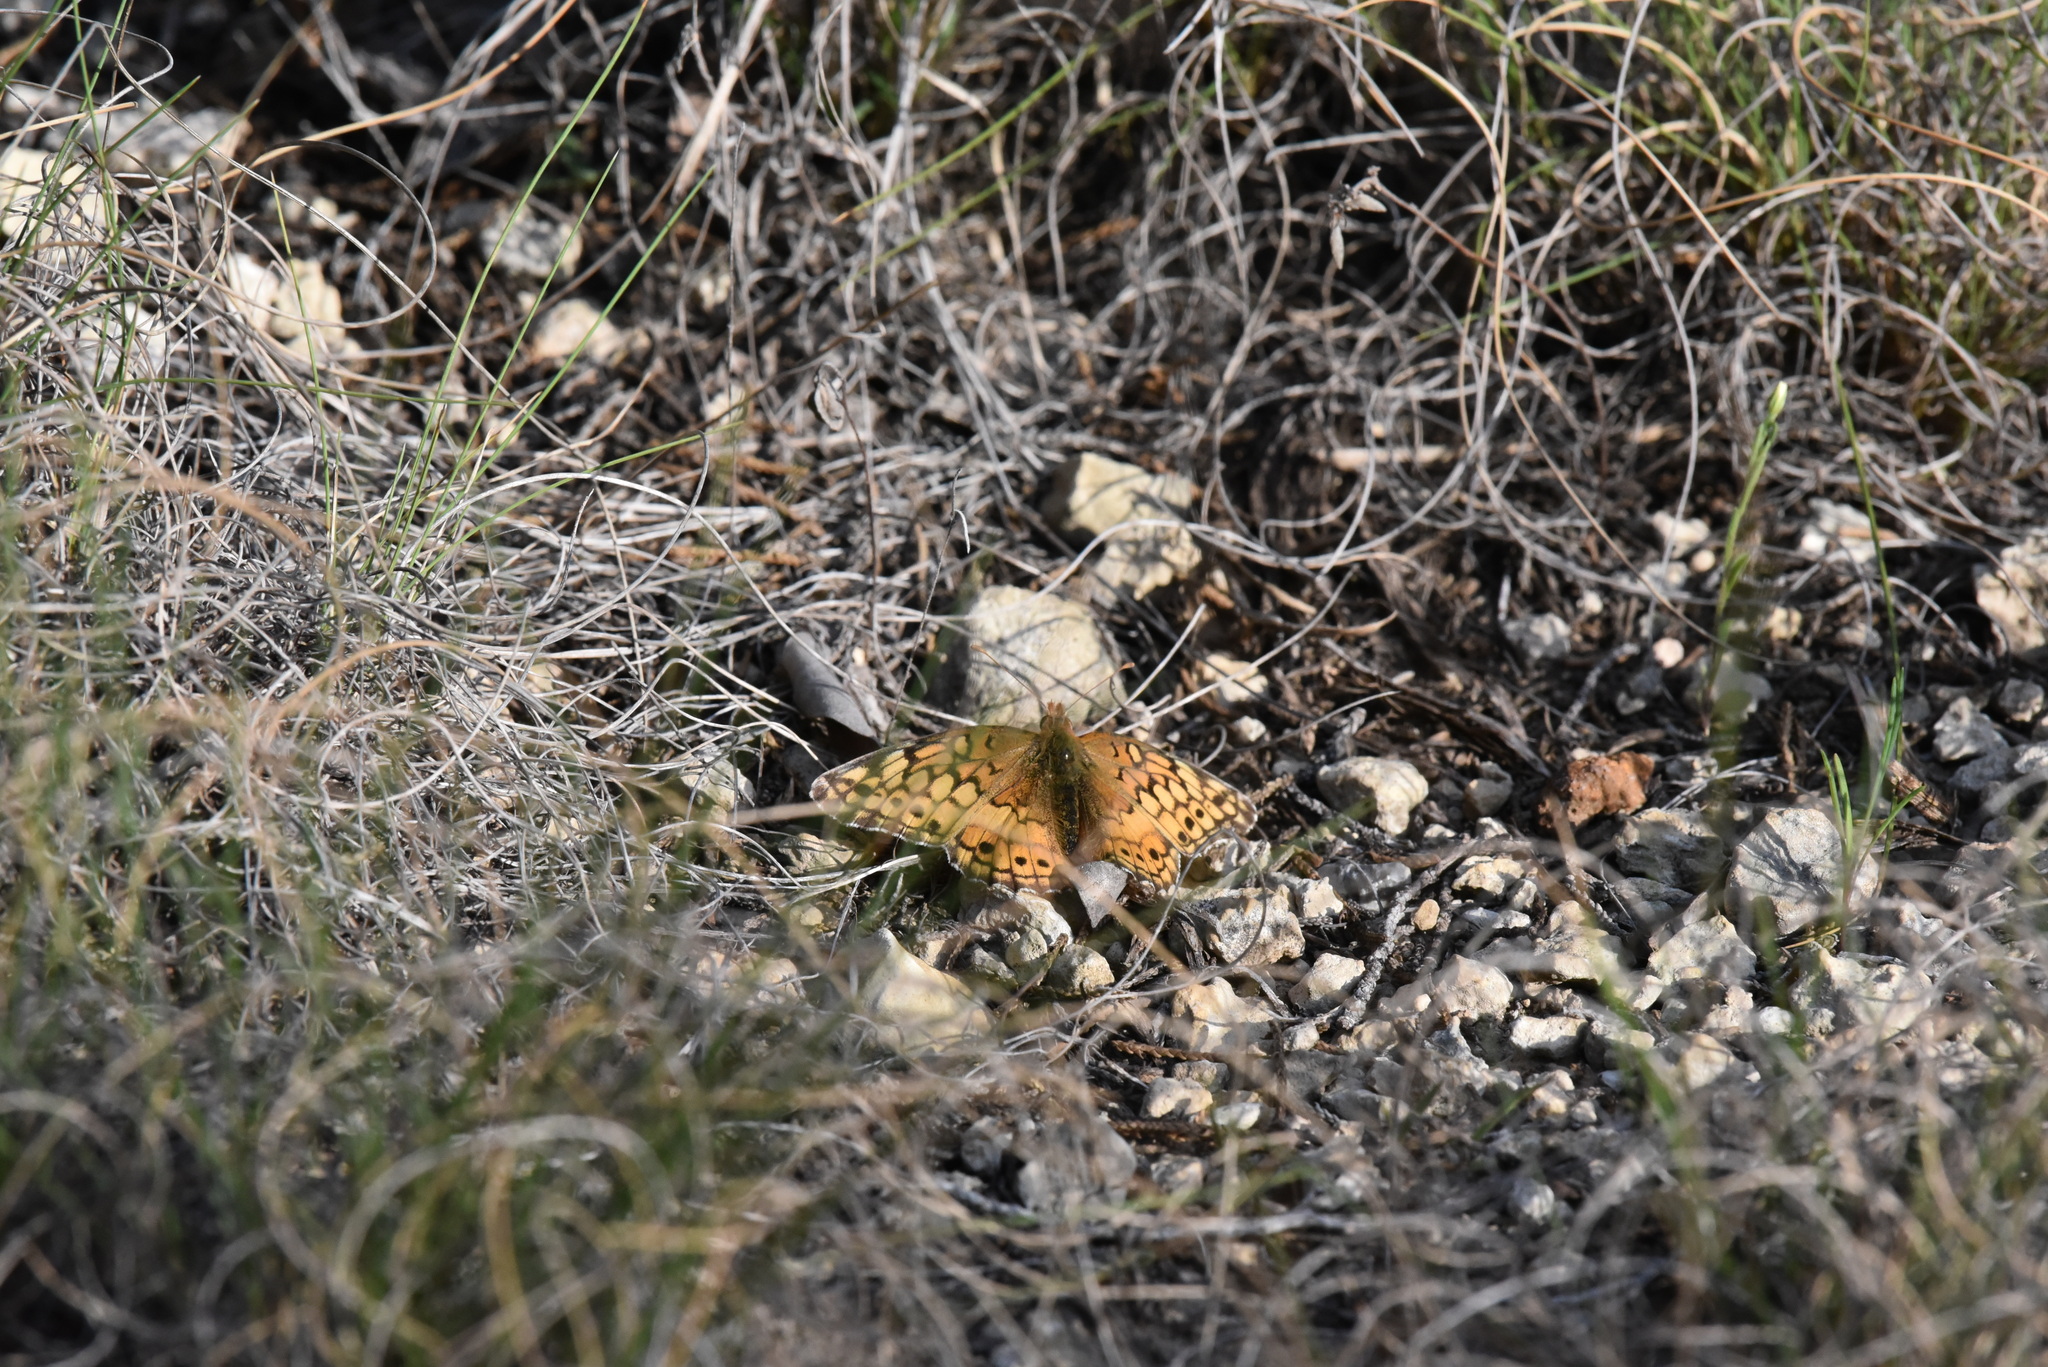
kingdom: Animalia
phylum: Arthropoda
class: Insecta
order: Lepidoptera
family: Nymphalidae
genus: Euptoieta
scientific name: Euptoieta claudia
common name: Variegated fritillary
